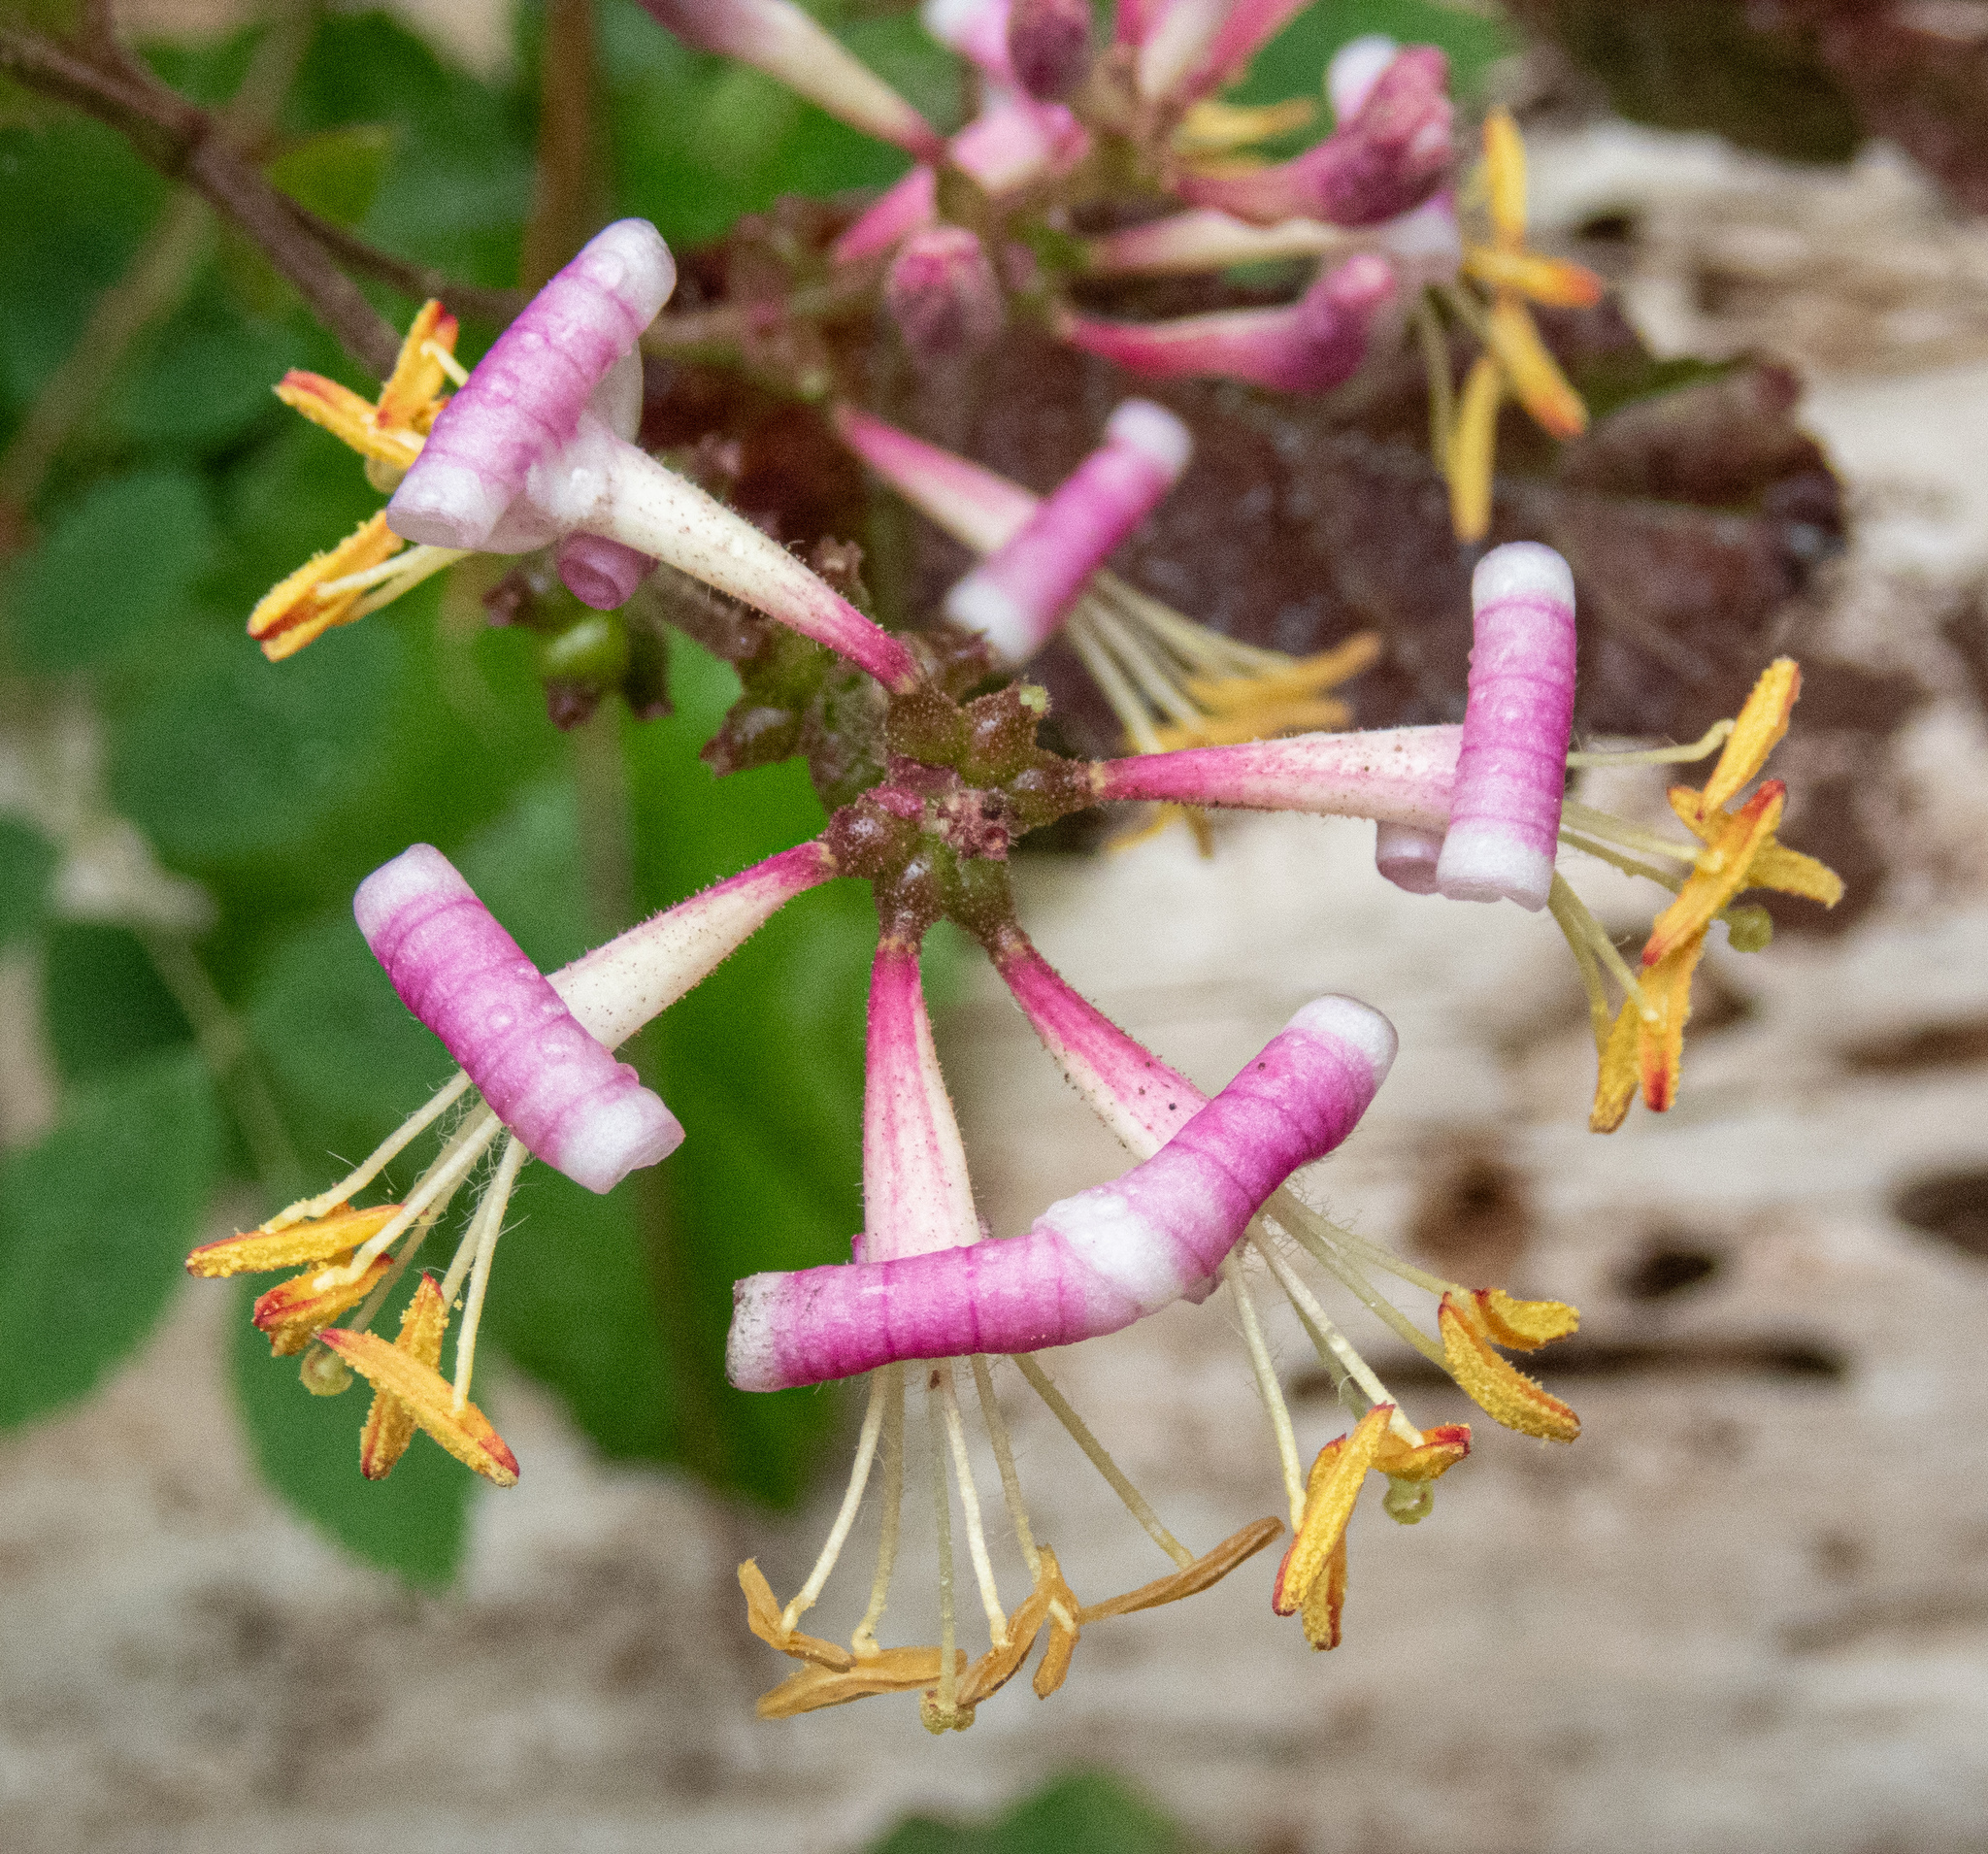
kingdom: Plantae
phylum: Tracheophyta
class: Magnoliopsida
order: Dipsacales
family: Caprifoliaceae
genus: Lonicera
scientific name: Lonicera hispidula
